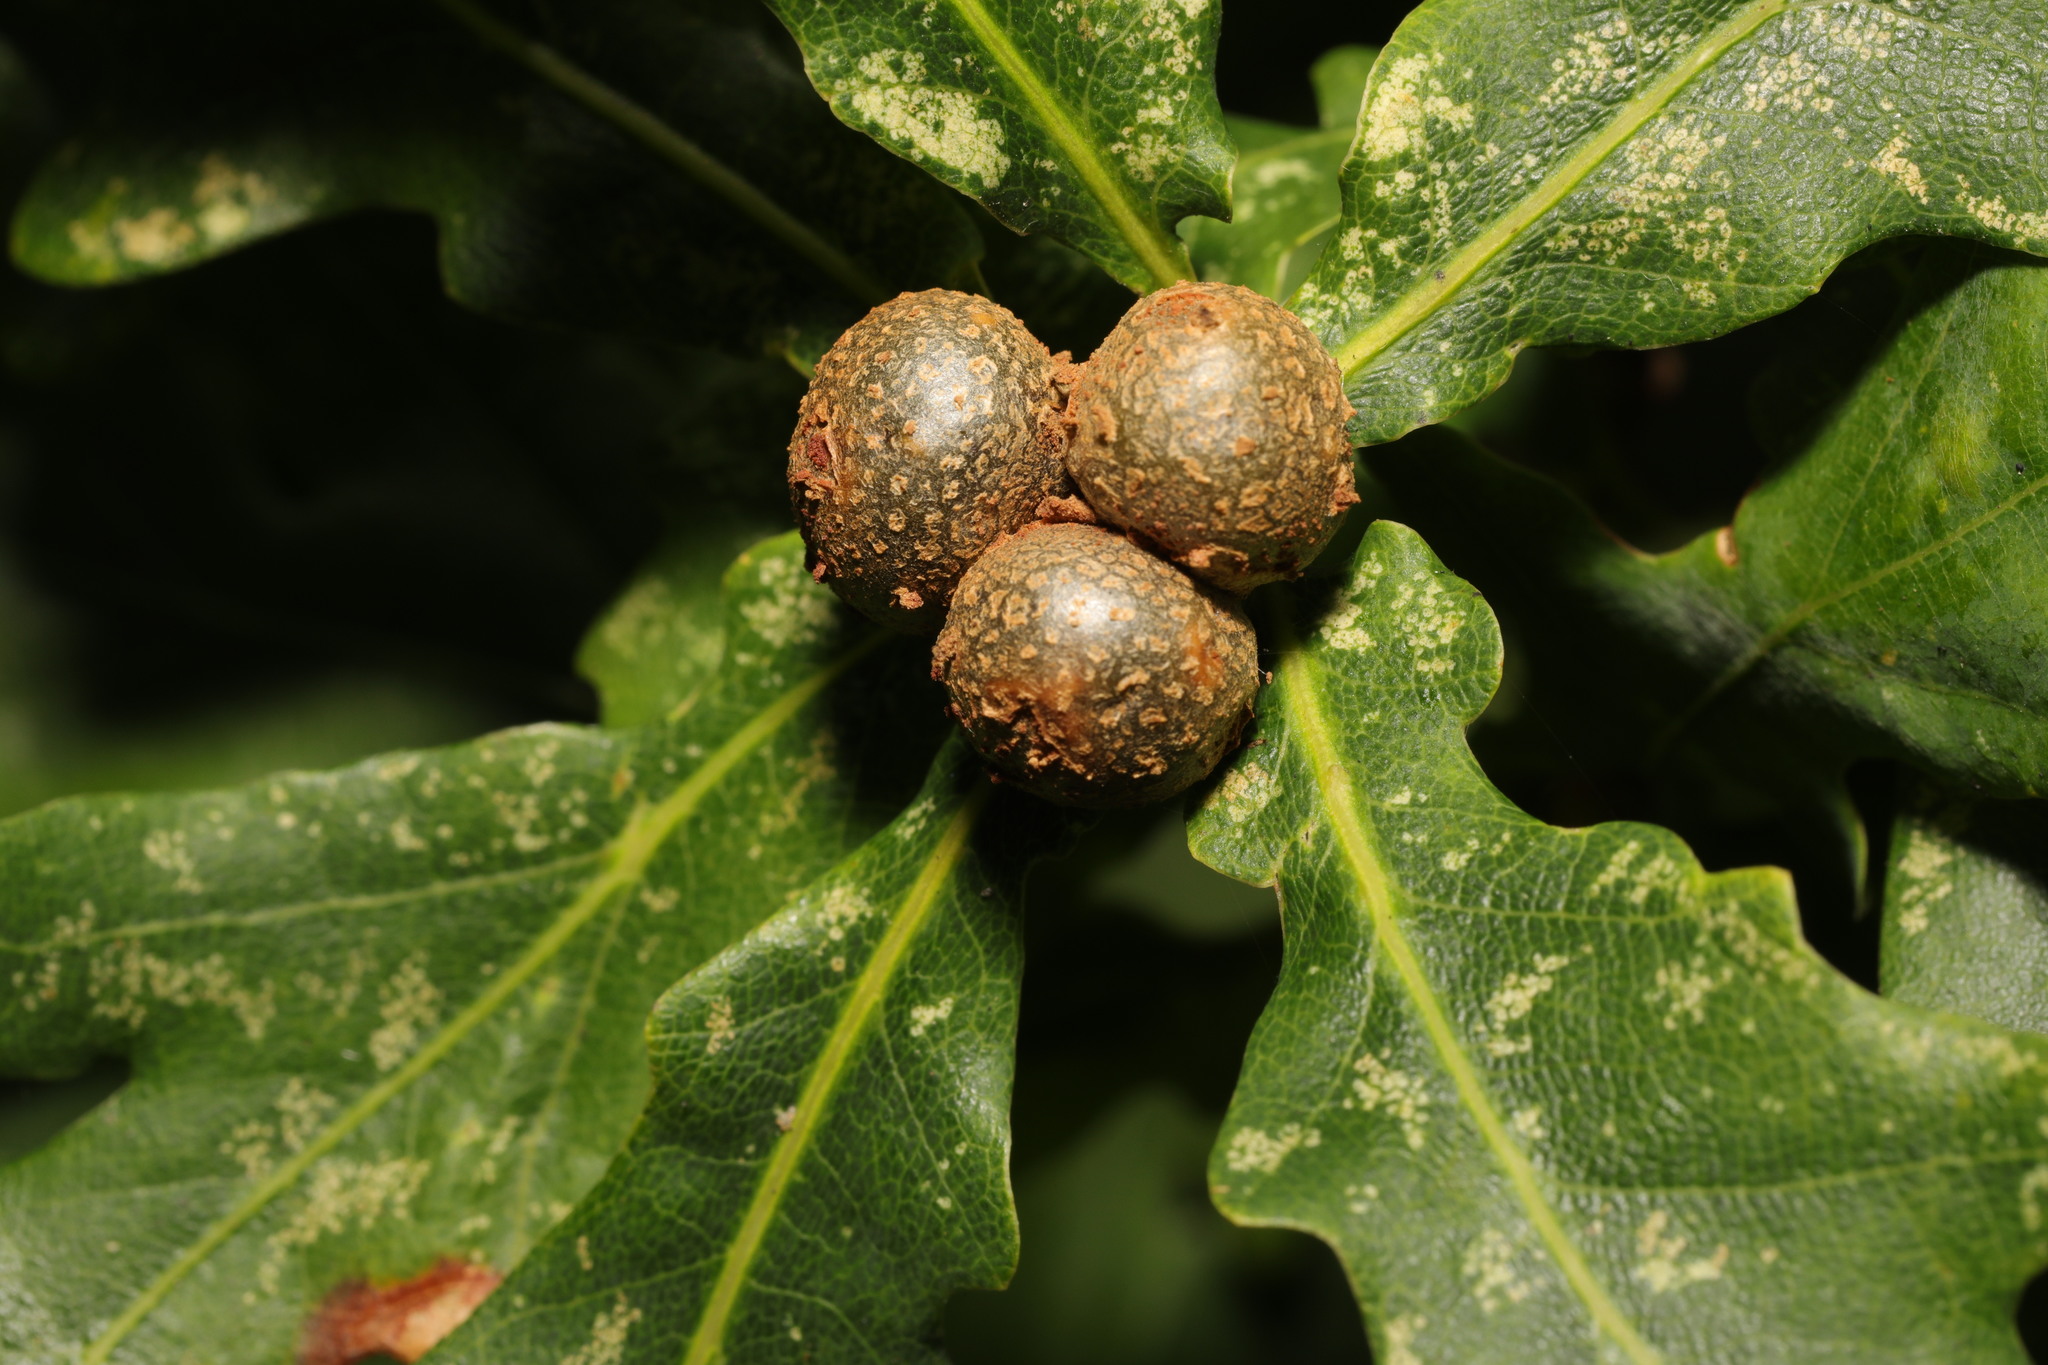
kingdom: Animalia
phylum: Arthropoda
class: Insecta
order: Hymenoptera
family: Cynipidae
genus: Andricus
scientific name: Andricus lignicolus
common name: Cola-nut gall
